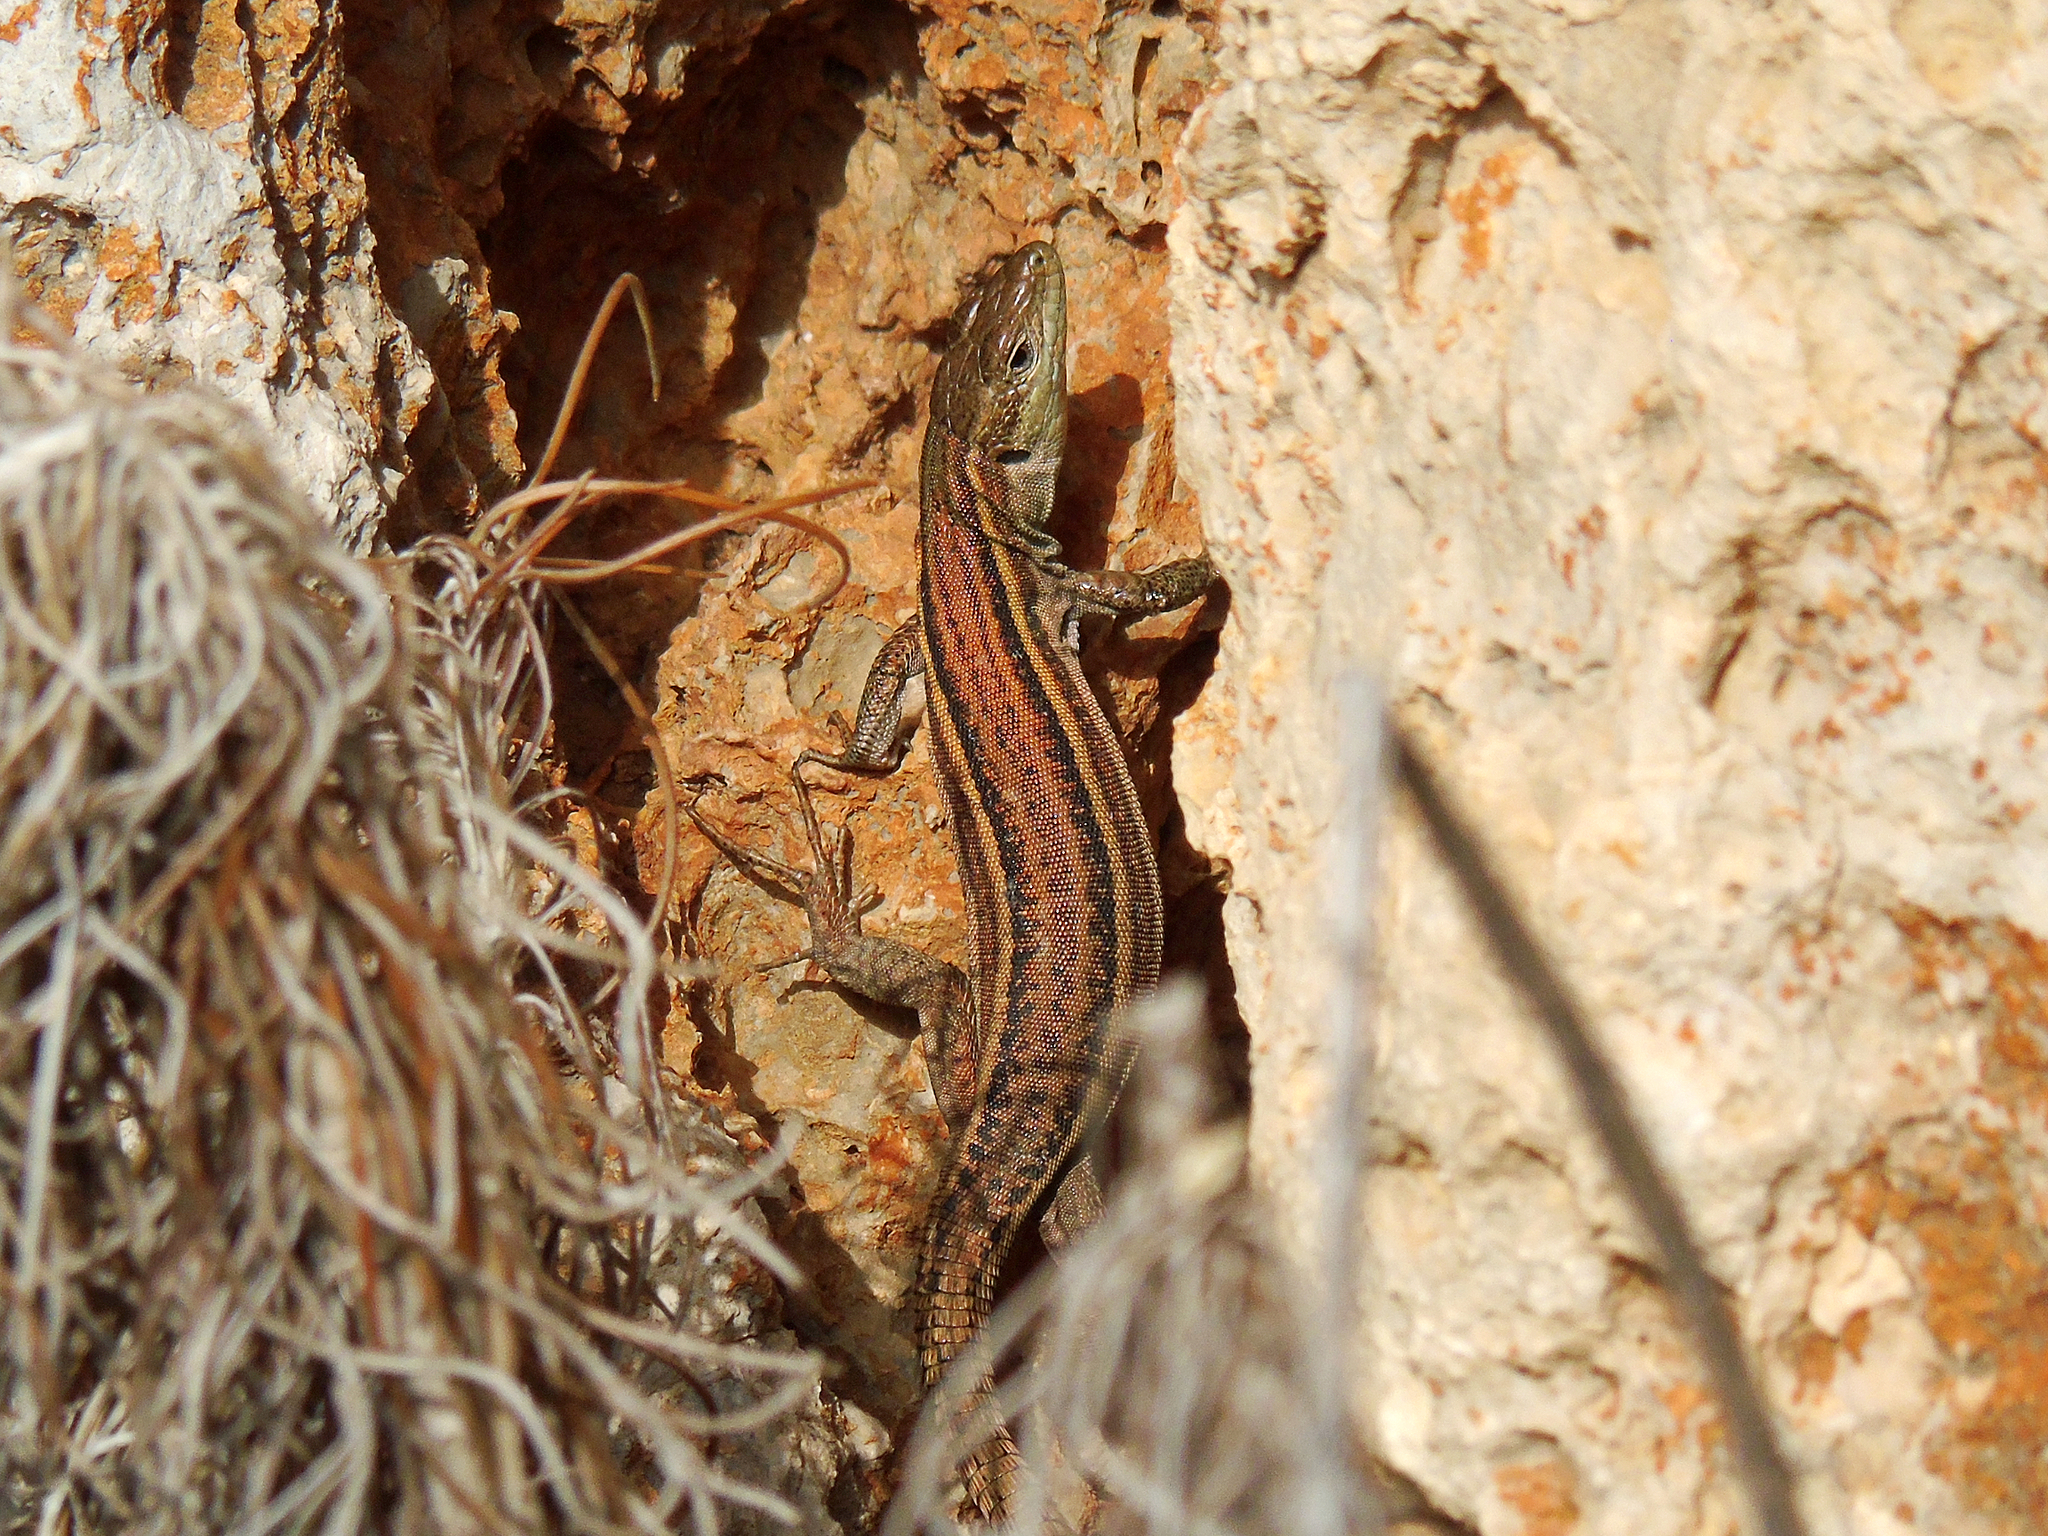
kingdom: Animalia
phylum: Chordata
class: Squamata
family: Lacertidae
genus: Podarcis
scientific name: Podarcis peloponnesiacus
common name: Peloponnese wall lizard
